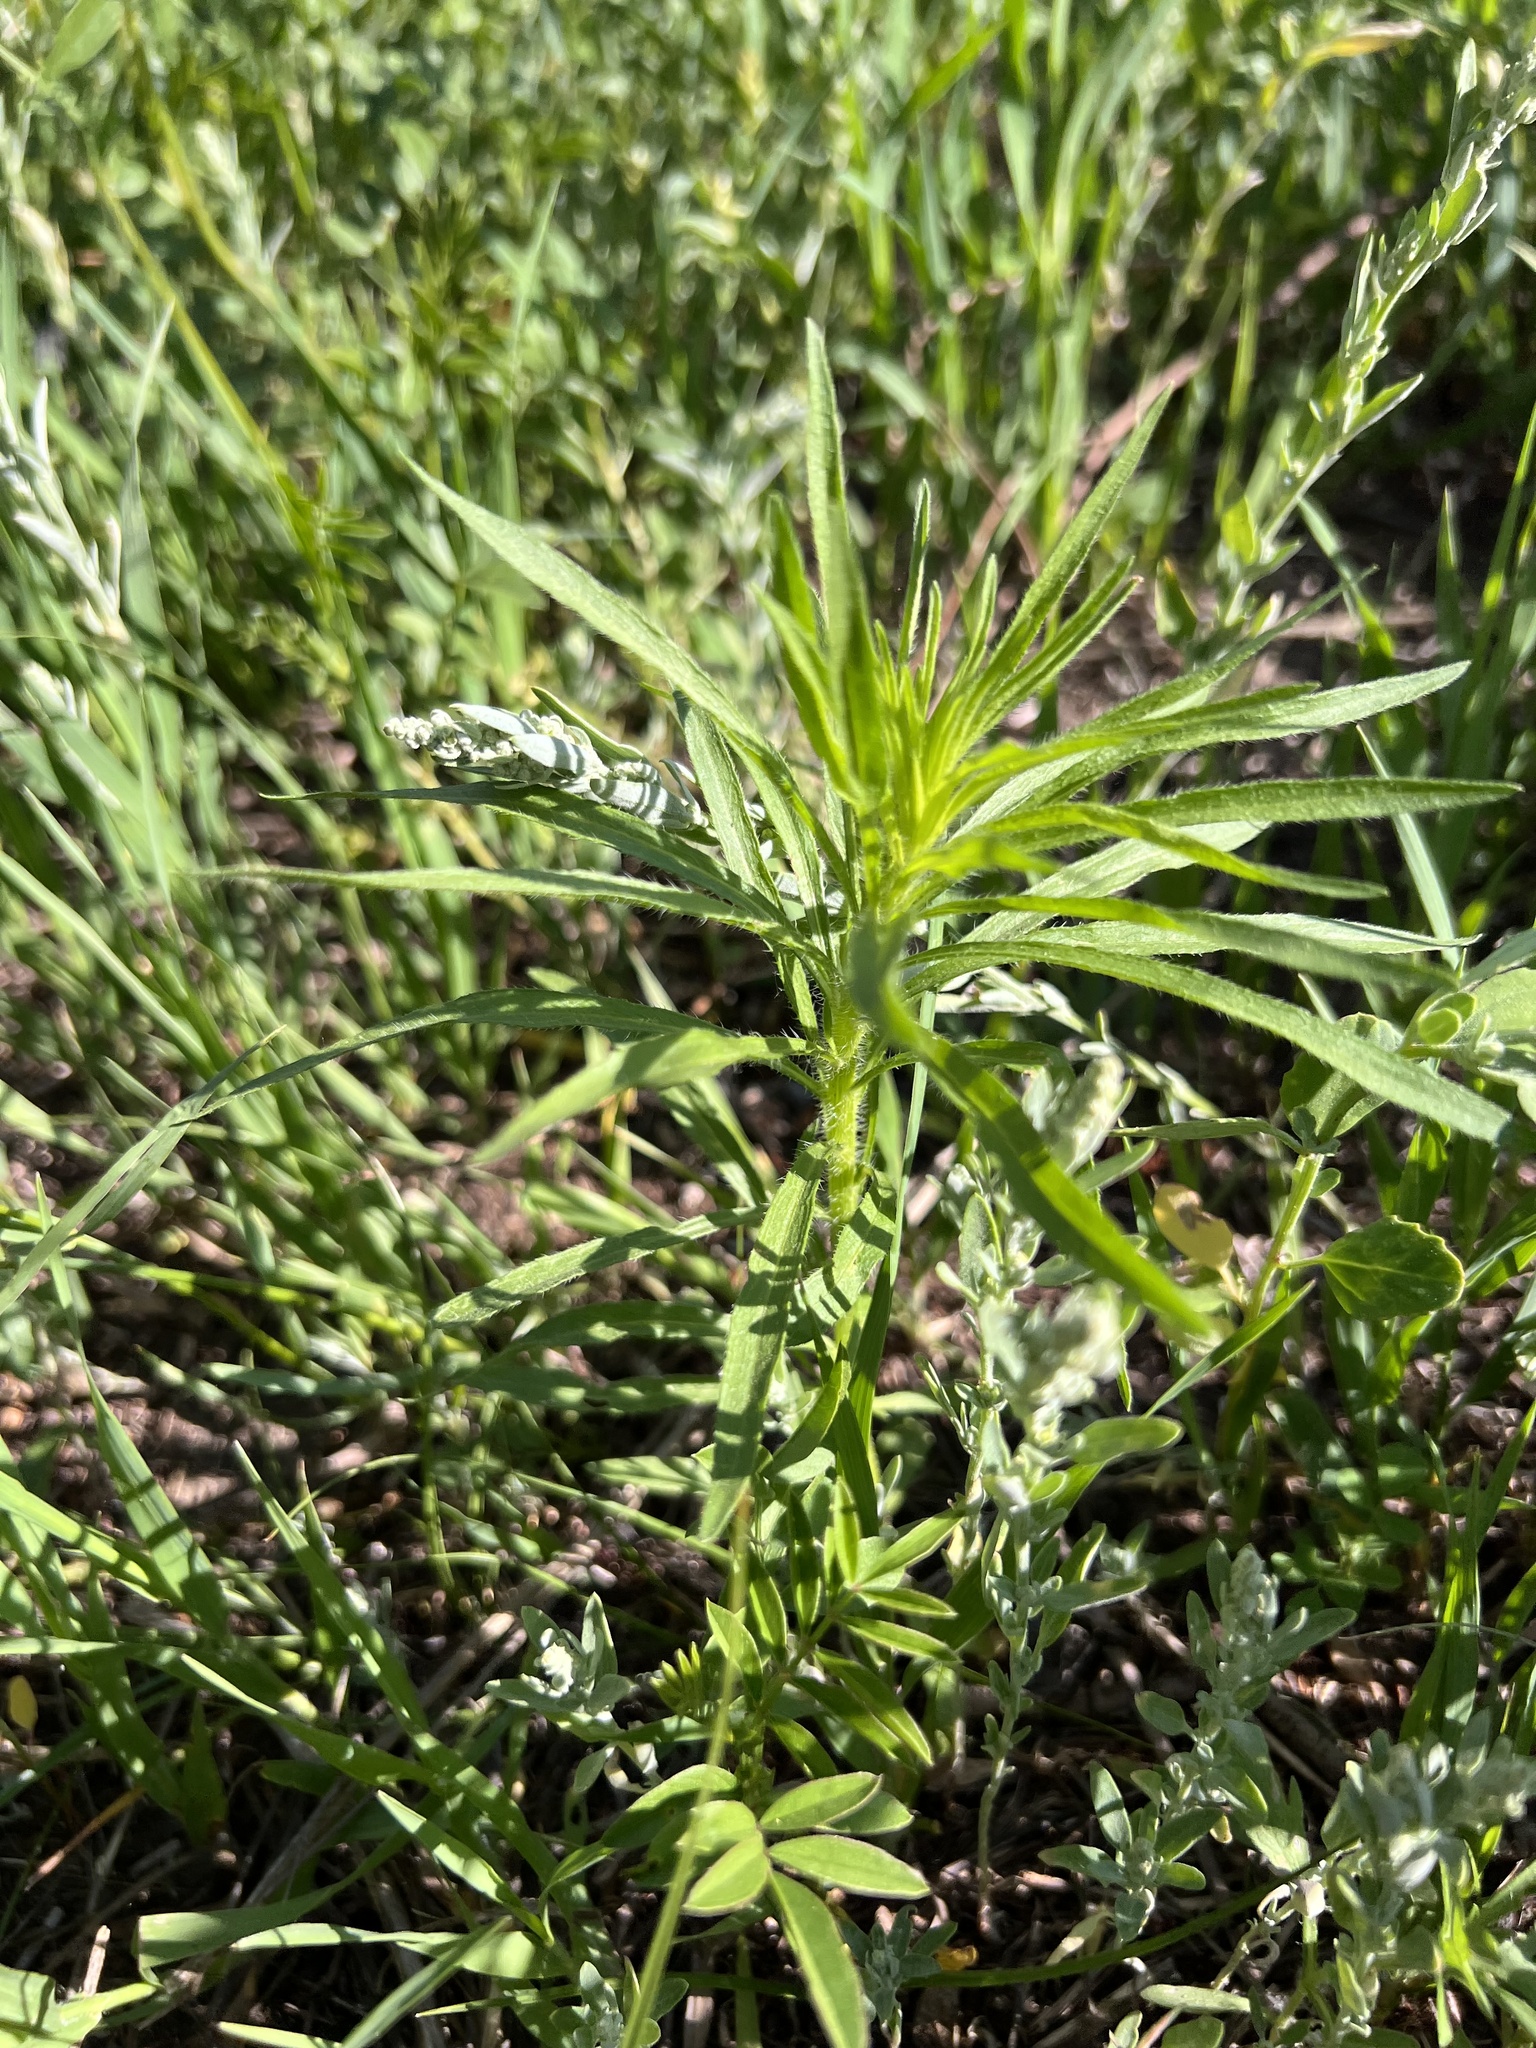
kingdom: Plantae
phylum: Tracheophyta
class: Magnoliopsida
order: Asterales
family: Asteraceae
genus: Erigeron
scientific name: Erigeron canadensis
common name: Canadian fleabane
